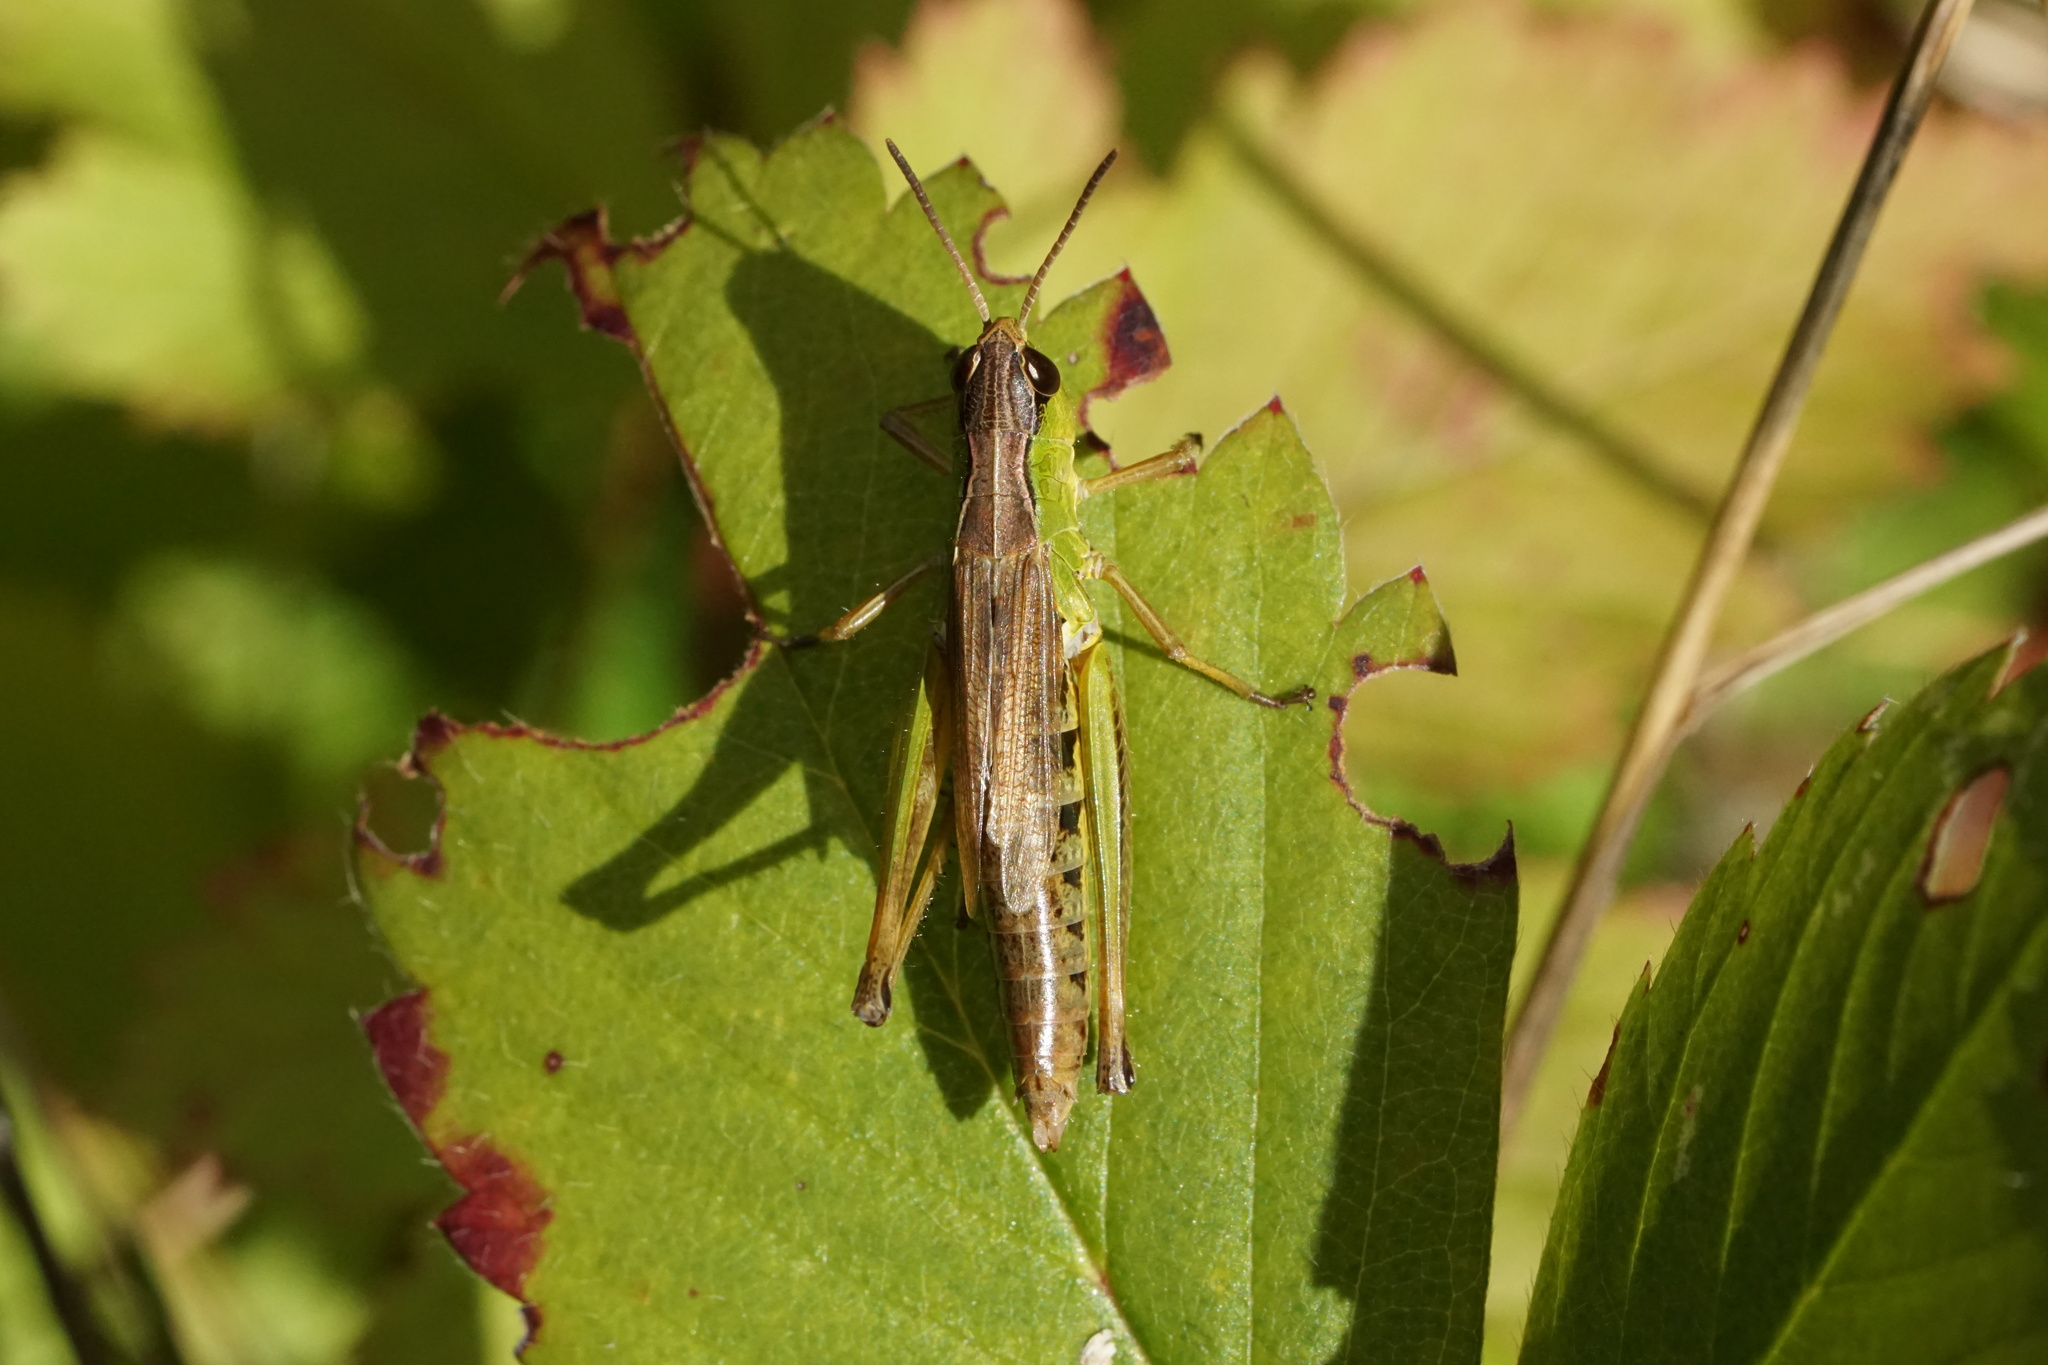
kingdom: Animalia
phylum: Arthropoda
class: Insecta
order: Orthoptera
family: Acrididae
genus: Pseudochorthippus
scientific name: Pseudochorthippus curtipennis
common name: Marsh meadow grasshopper
